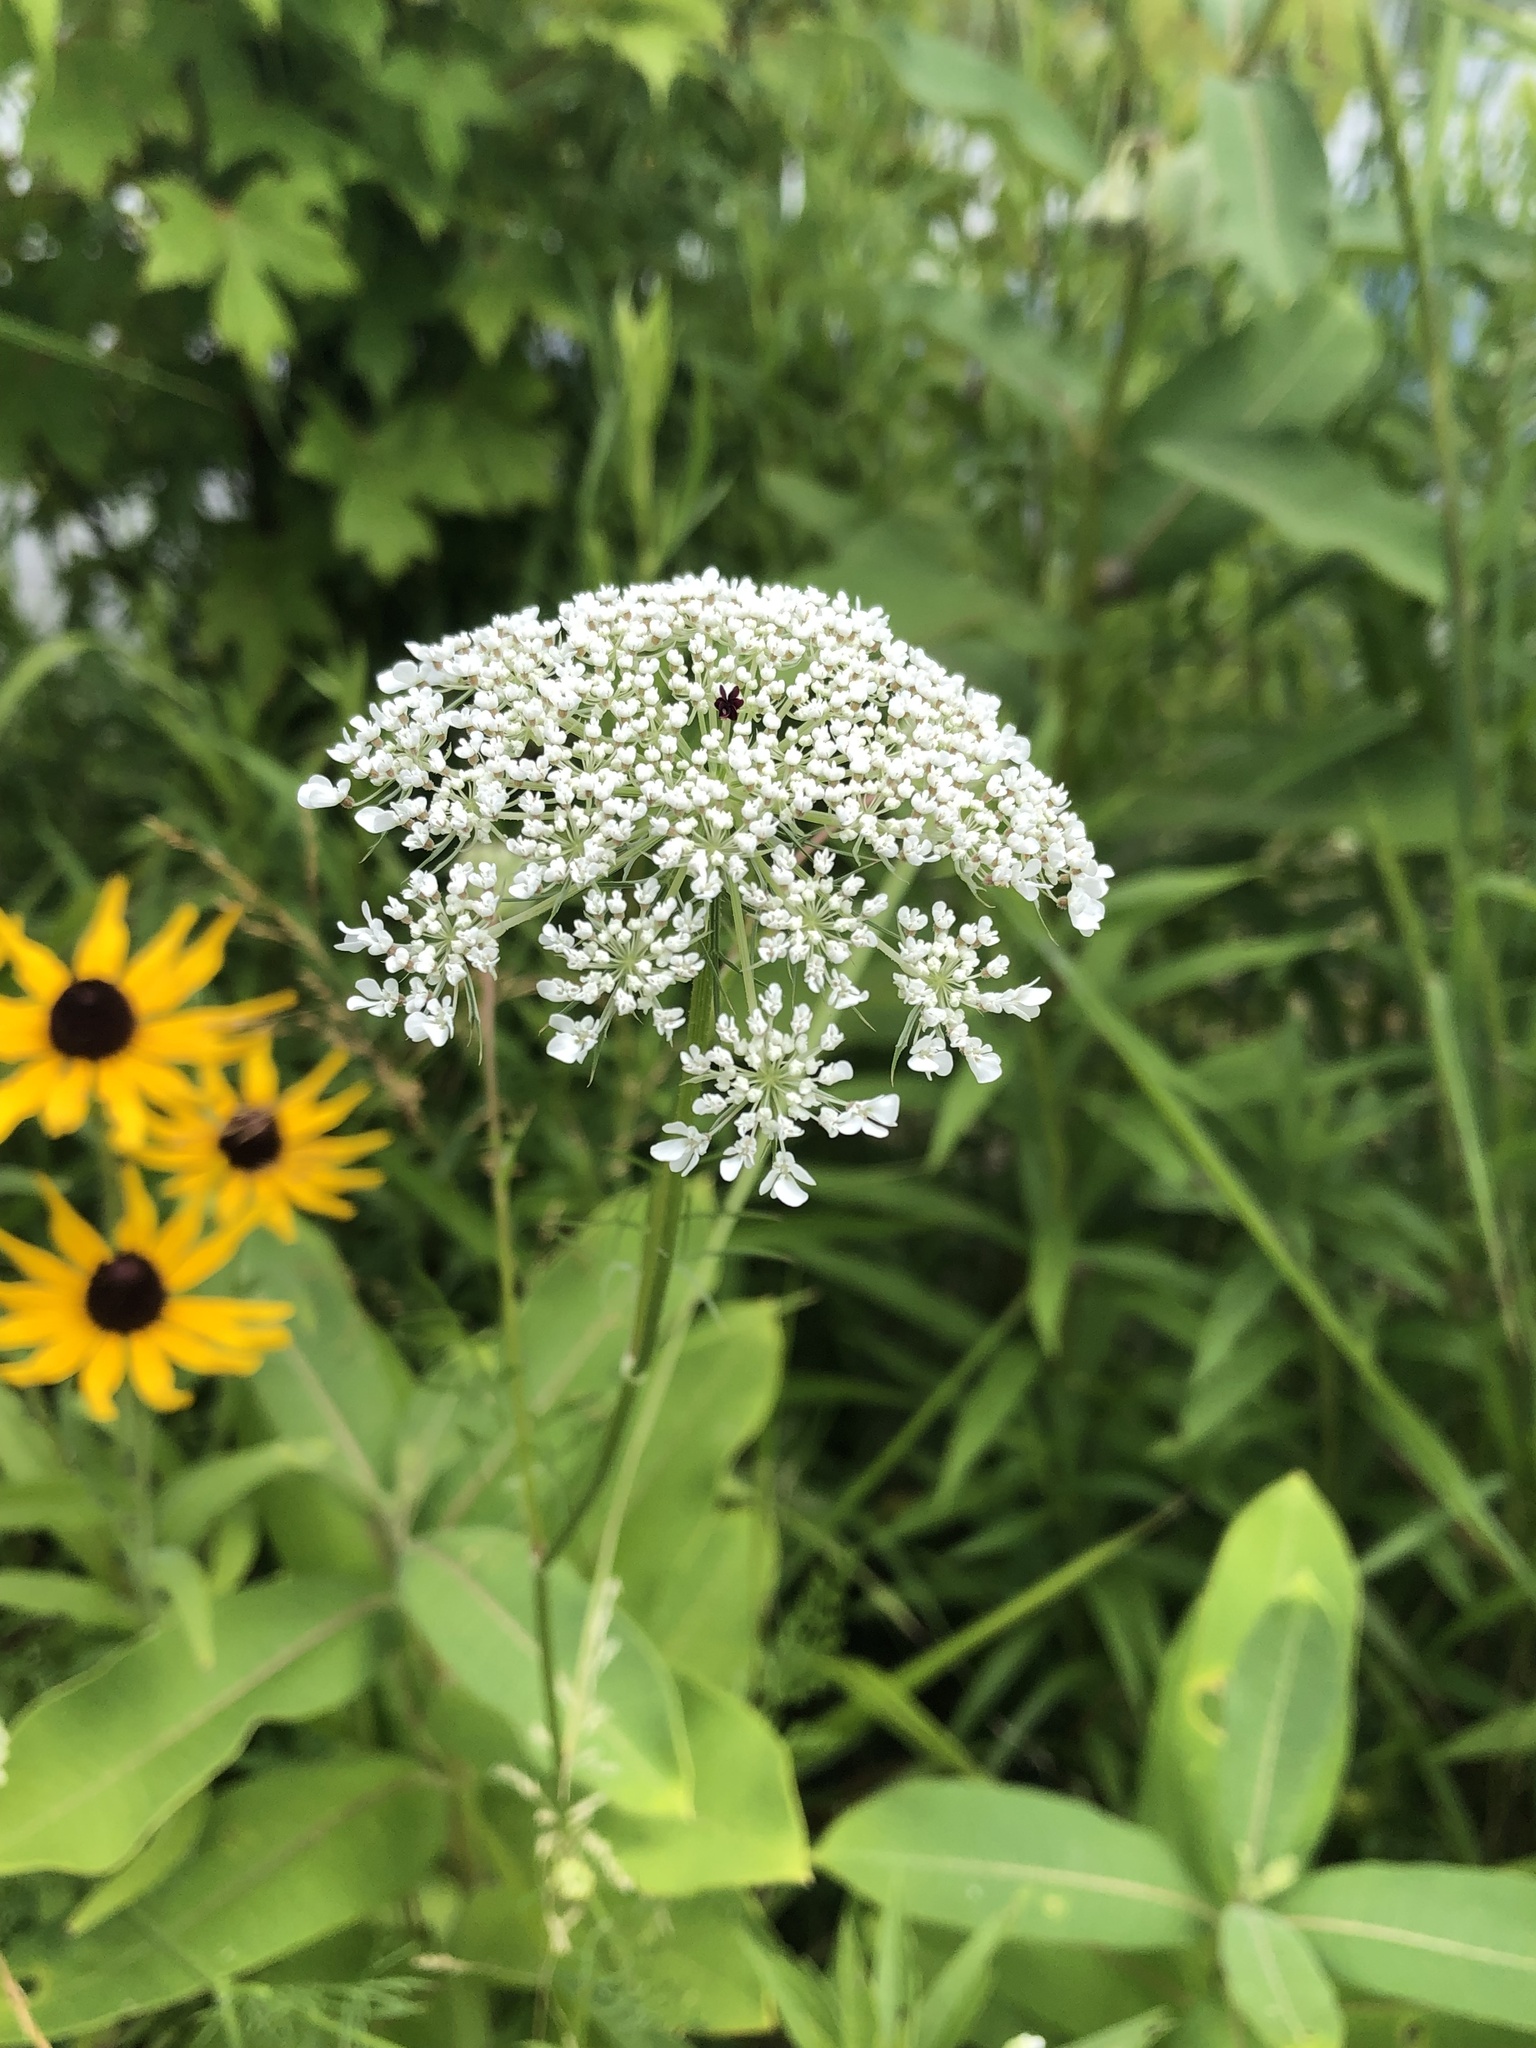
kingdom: Plantae
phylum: Tracheophyta
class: Magnoliopsida
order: Apiales
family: Apiaceae
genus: Daucus
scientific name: Daucus carota
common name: Wild carrot
